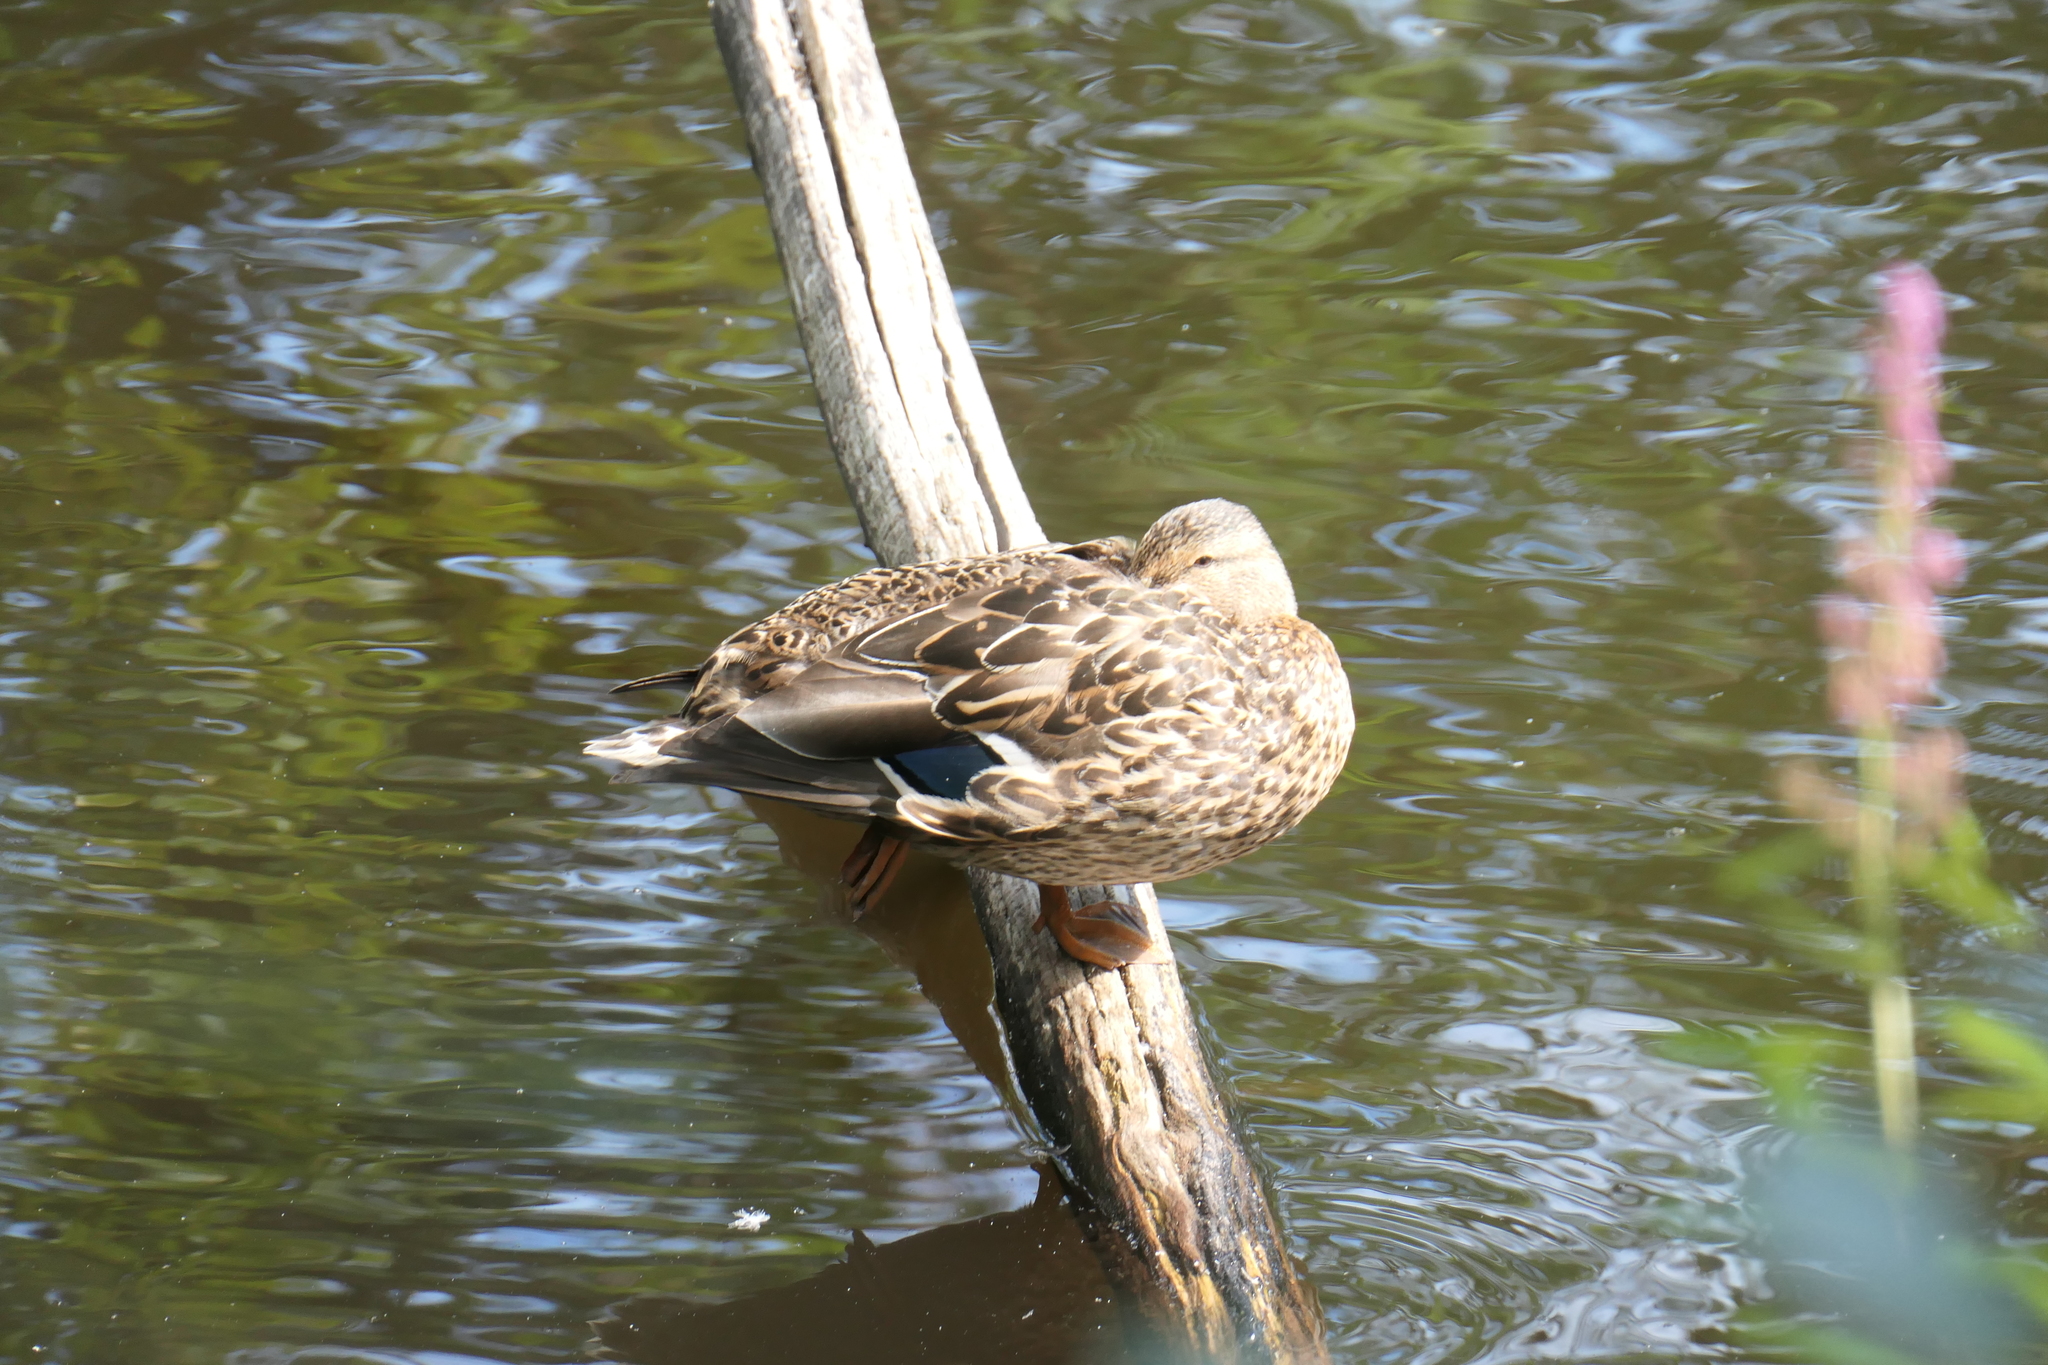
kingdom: Animalia
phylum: Chordata
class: Aves
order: Anseriformes
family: Anatidae
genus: Anas
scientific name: Anas platyrhynchos
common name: Mallard
